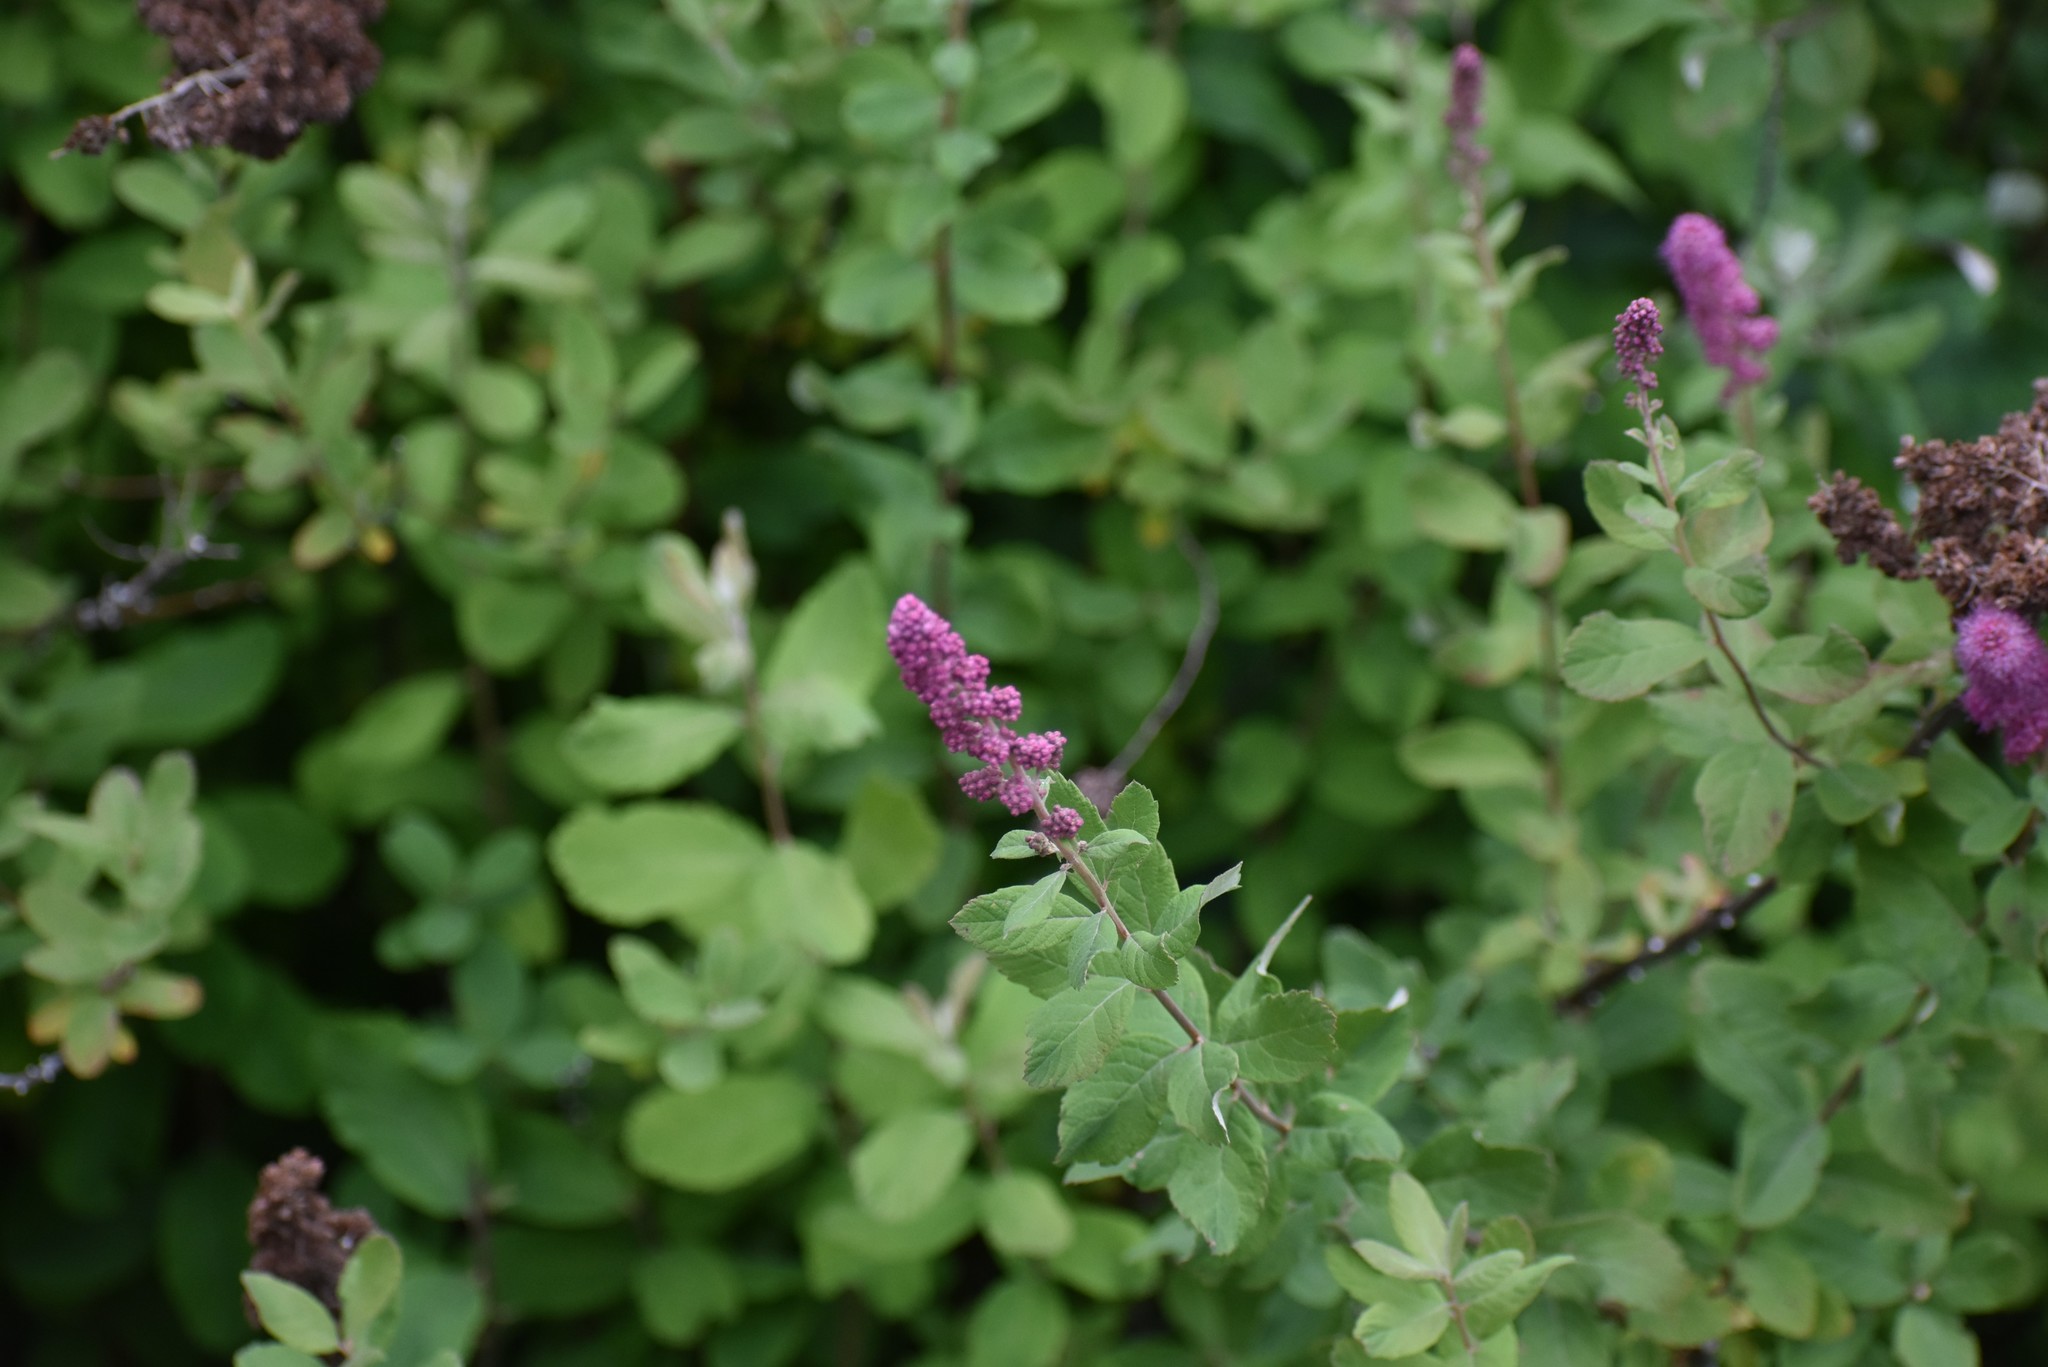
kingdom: Plantae
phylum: Tracheophyta
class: Magnoliopsida
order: Rosales
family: Rosaceae
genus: Spiraea
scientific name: Spiraea douglasii
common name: Steeplebush
